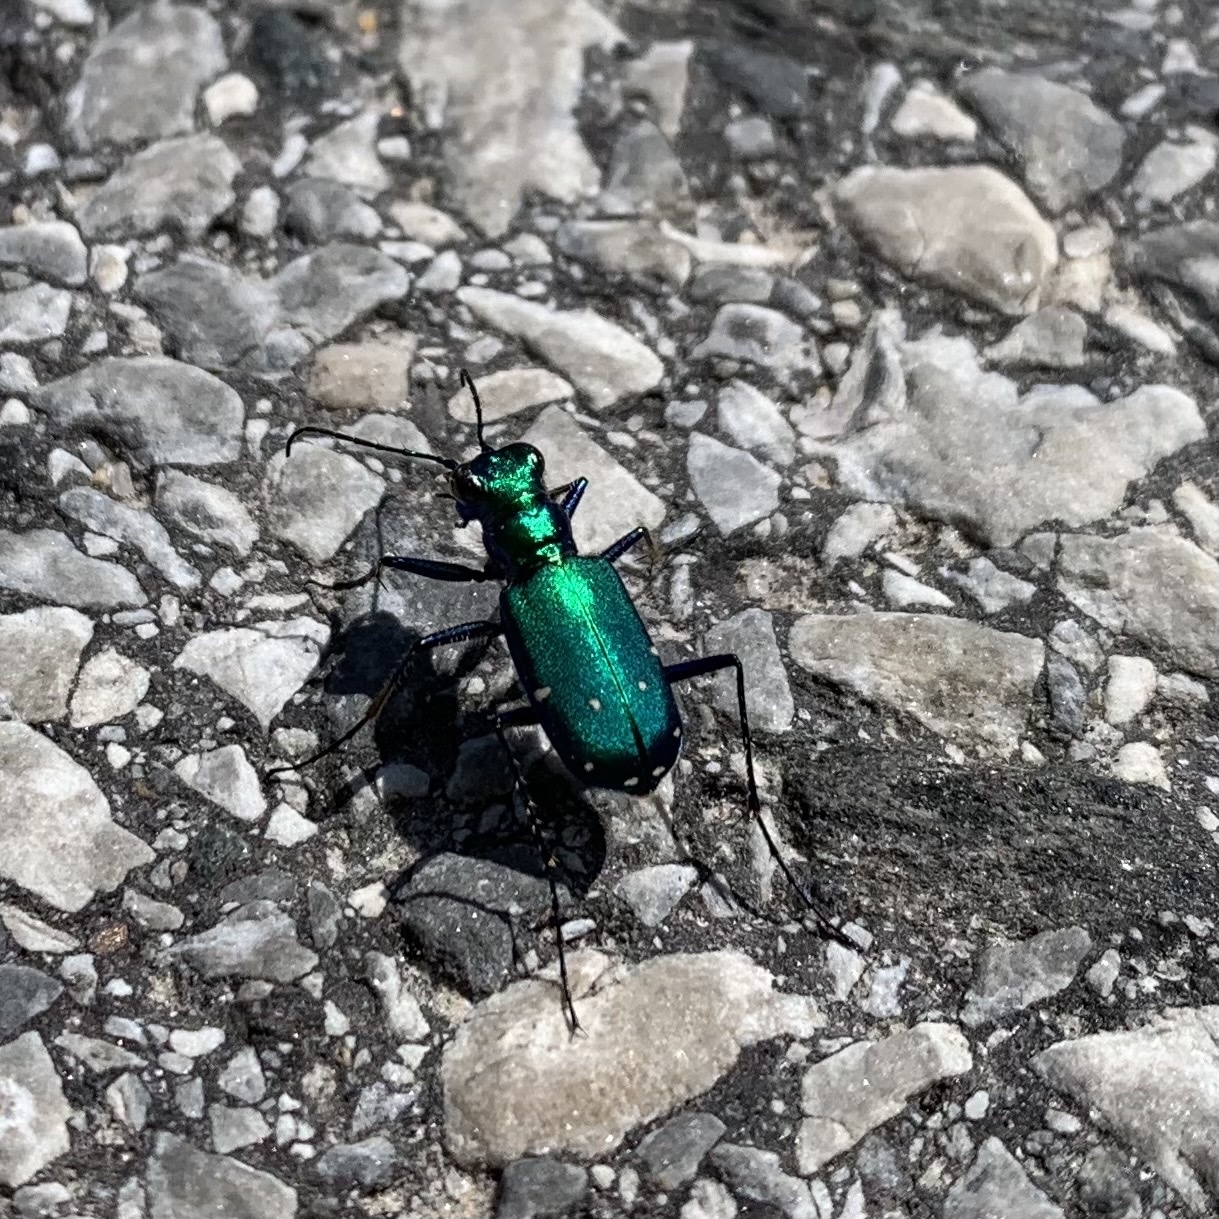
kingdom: Animalia
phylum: Arthropoda
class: Insecta
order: Coleoptera
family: Carabidae
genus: Cicindela
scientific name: Cicindela sexguttata
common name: Six-spotted tiger beetle
